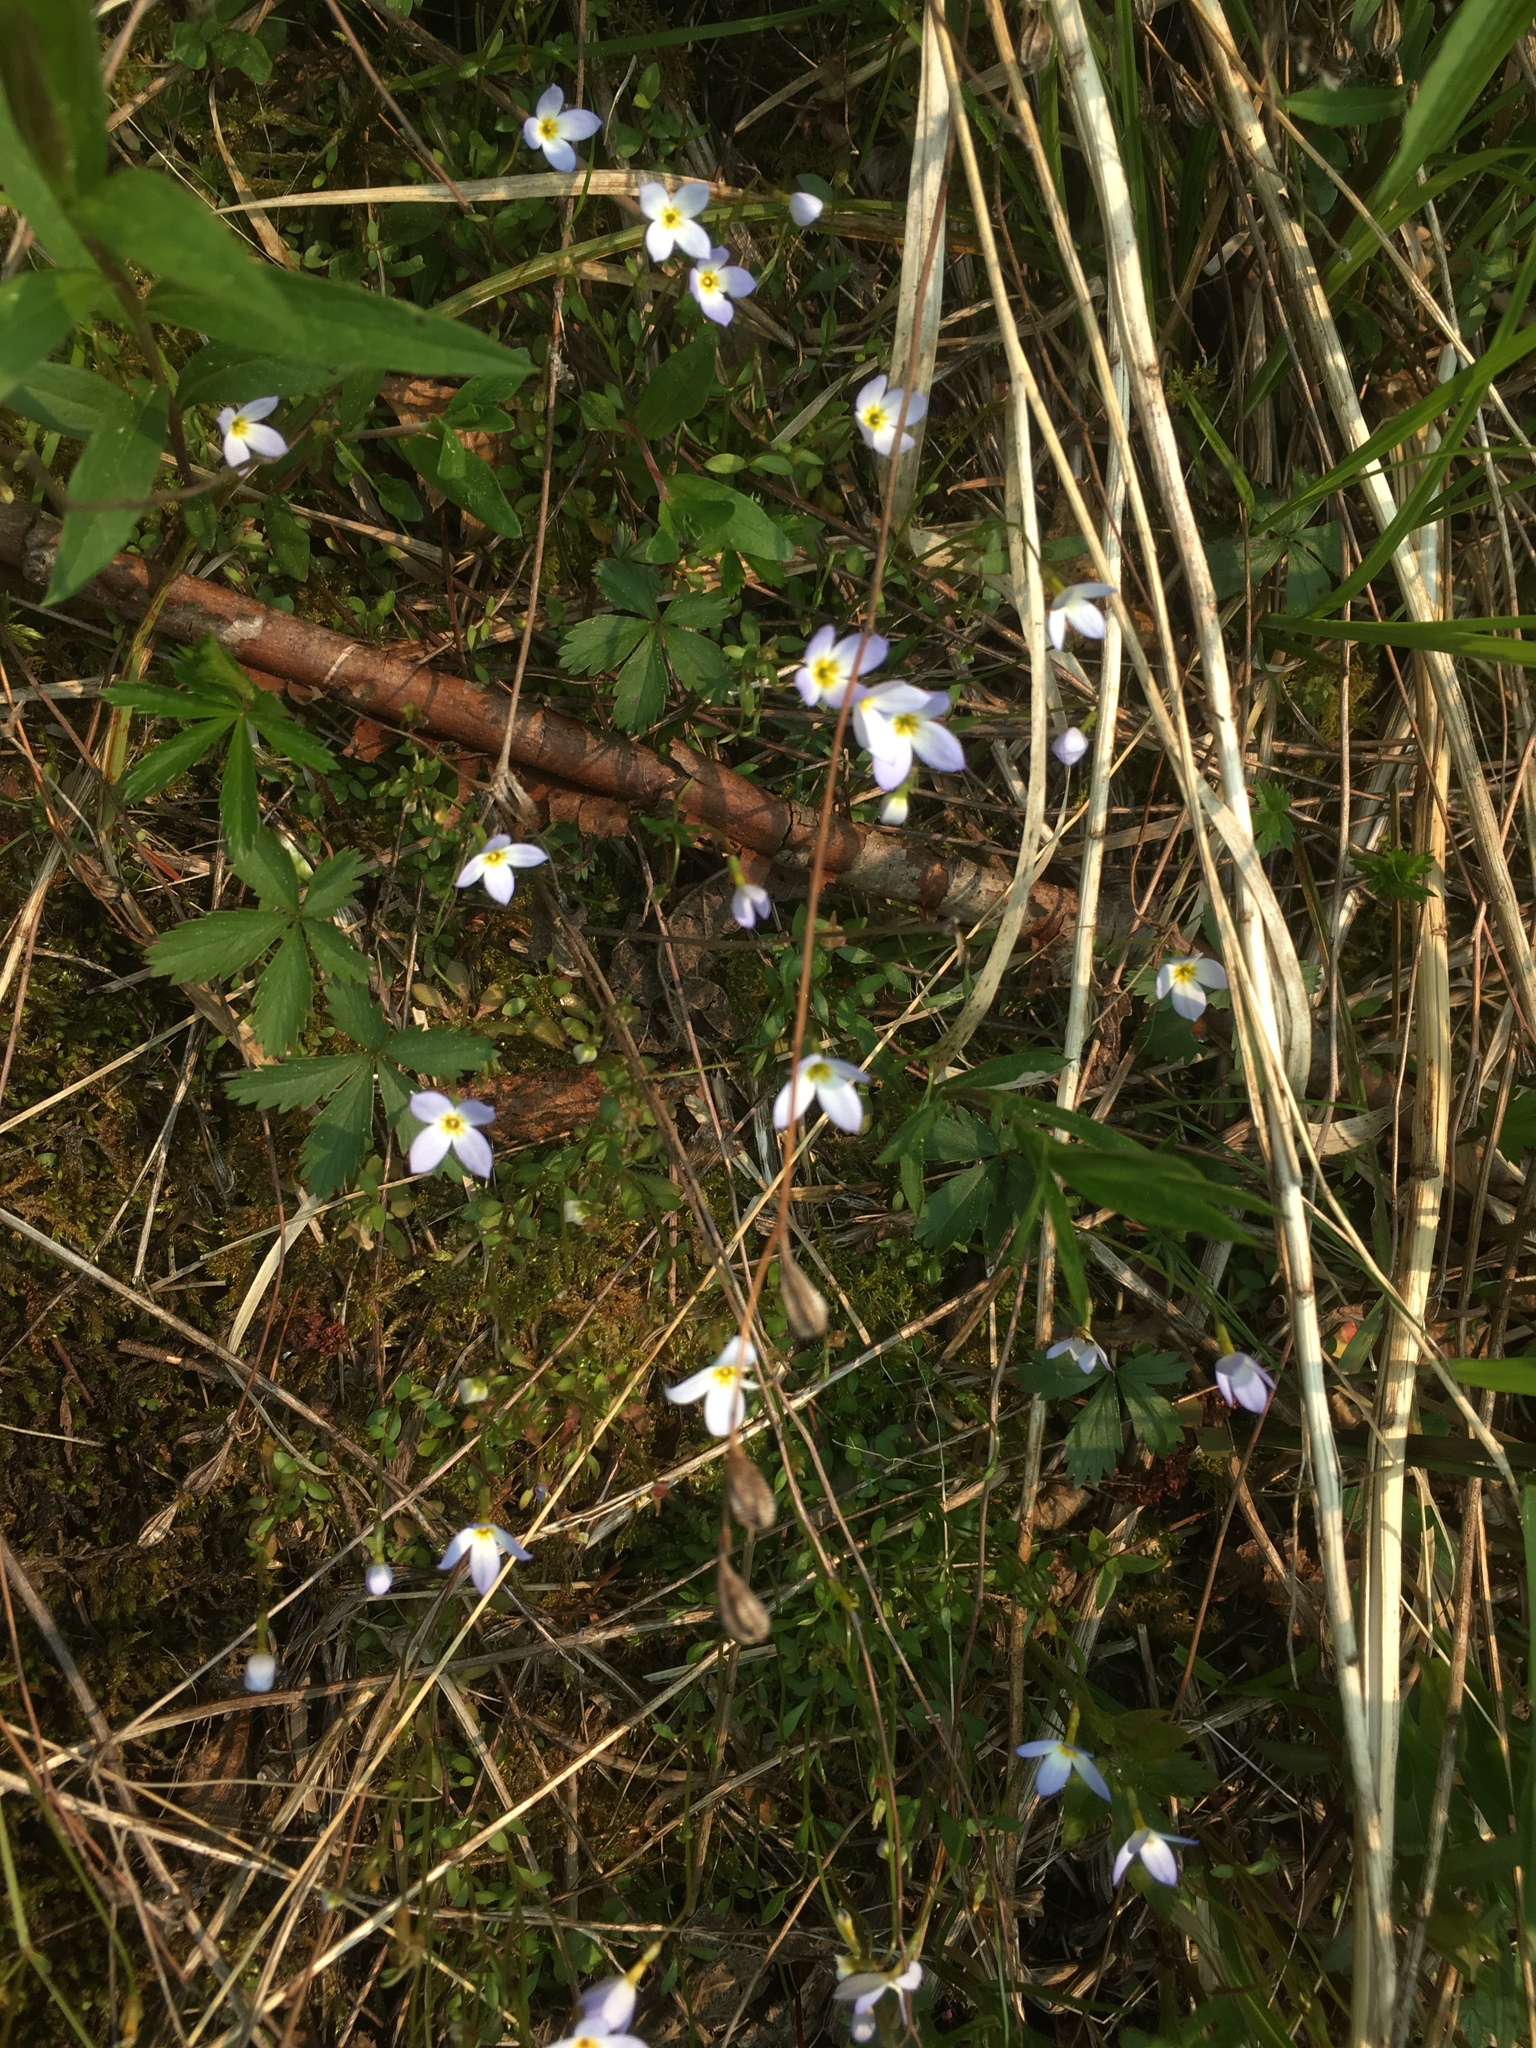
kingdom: Plantae
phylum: Tracheophyta
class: Magnoliopsida
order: Gentianales
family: Rubiaceae
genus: Houstonia
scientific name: Houstonia caerulea
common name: Bluets
